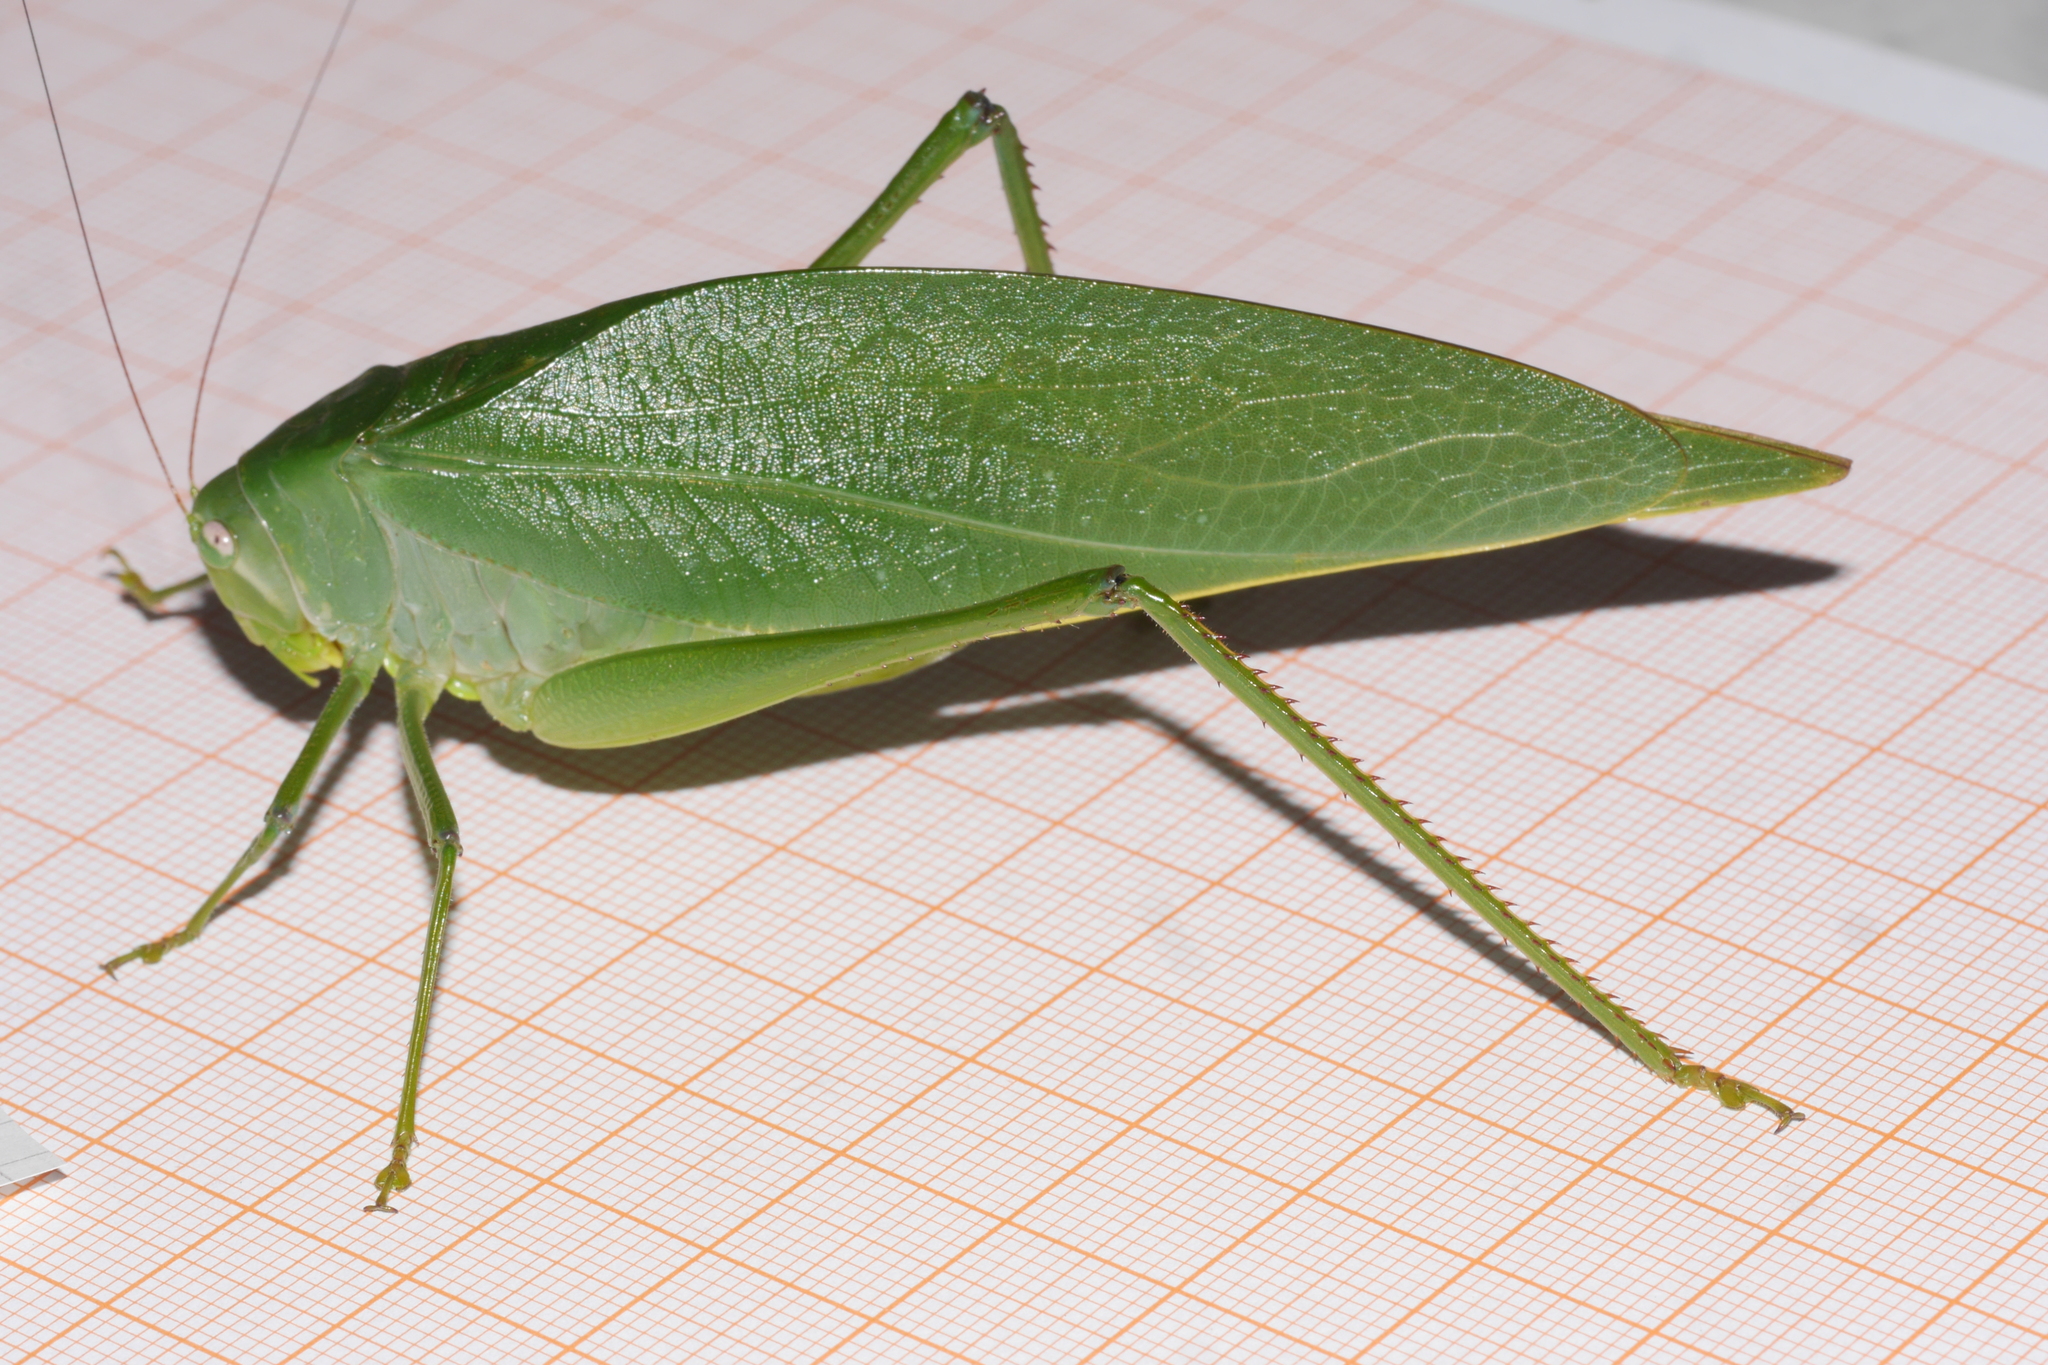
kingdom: Animalia
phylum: Arthropoda
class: Insecta
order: Orthoptera
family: Tettigoniidae
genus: Philophyllia
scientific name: Philophyllia ingens
